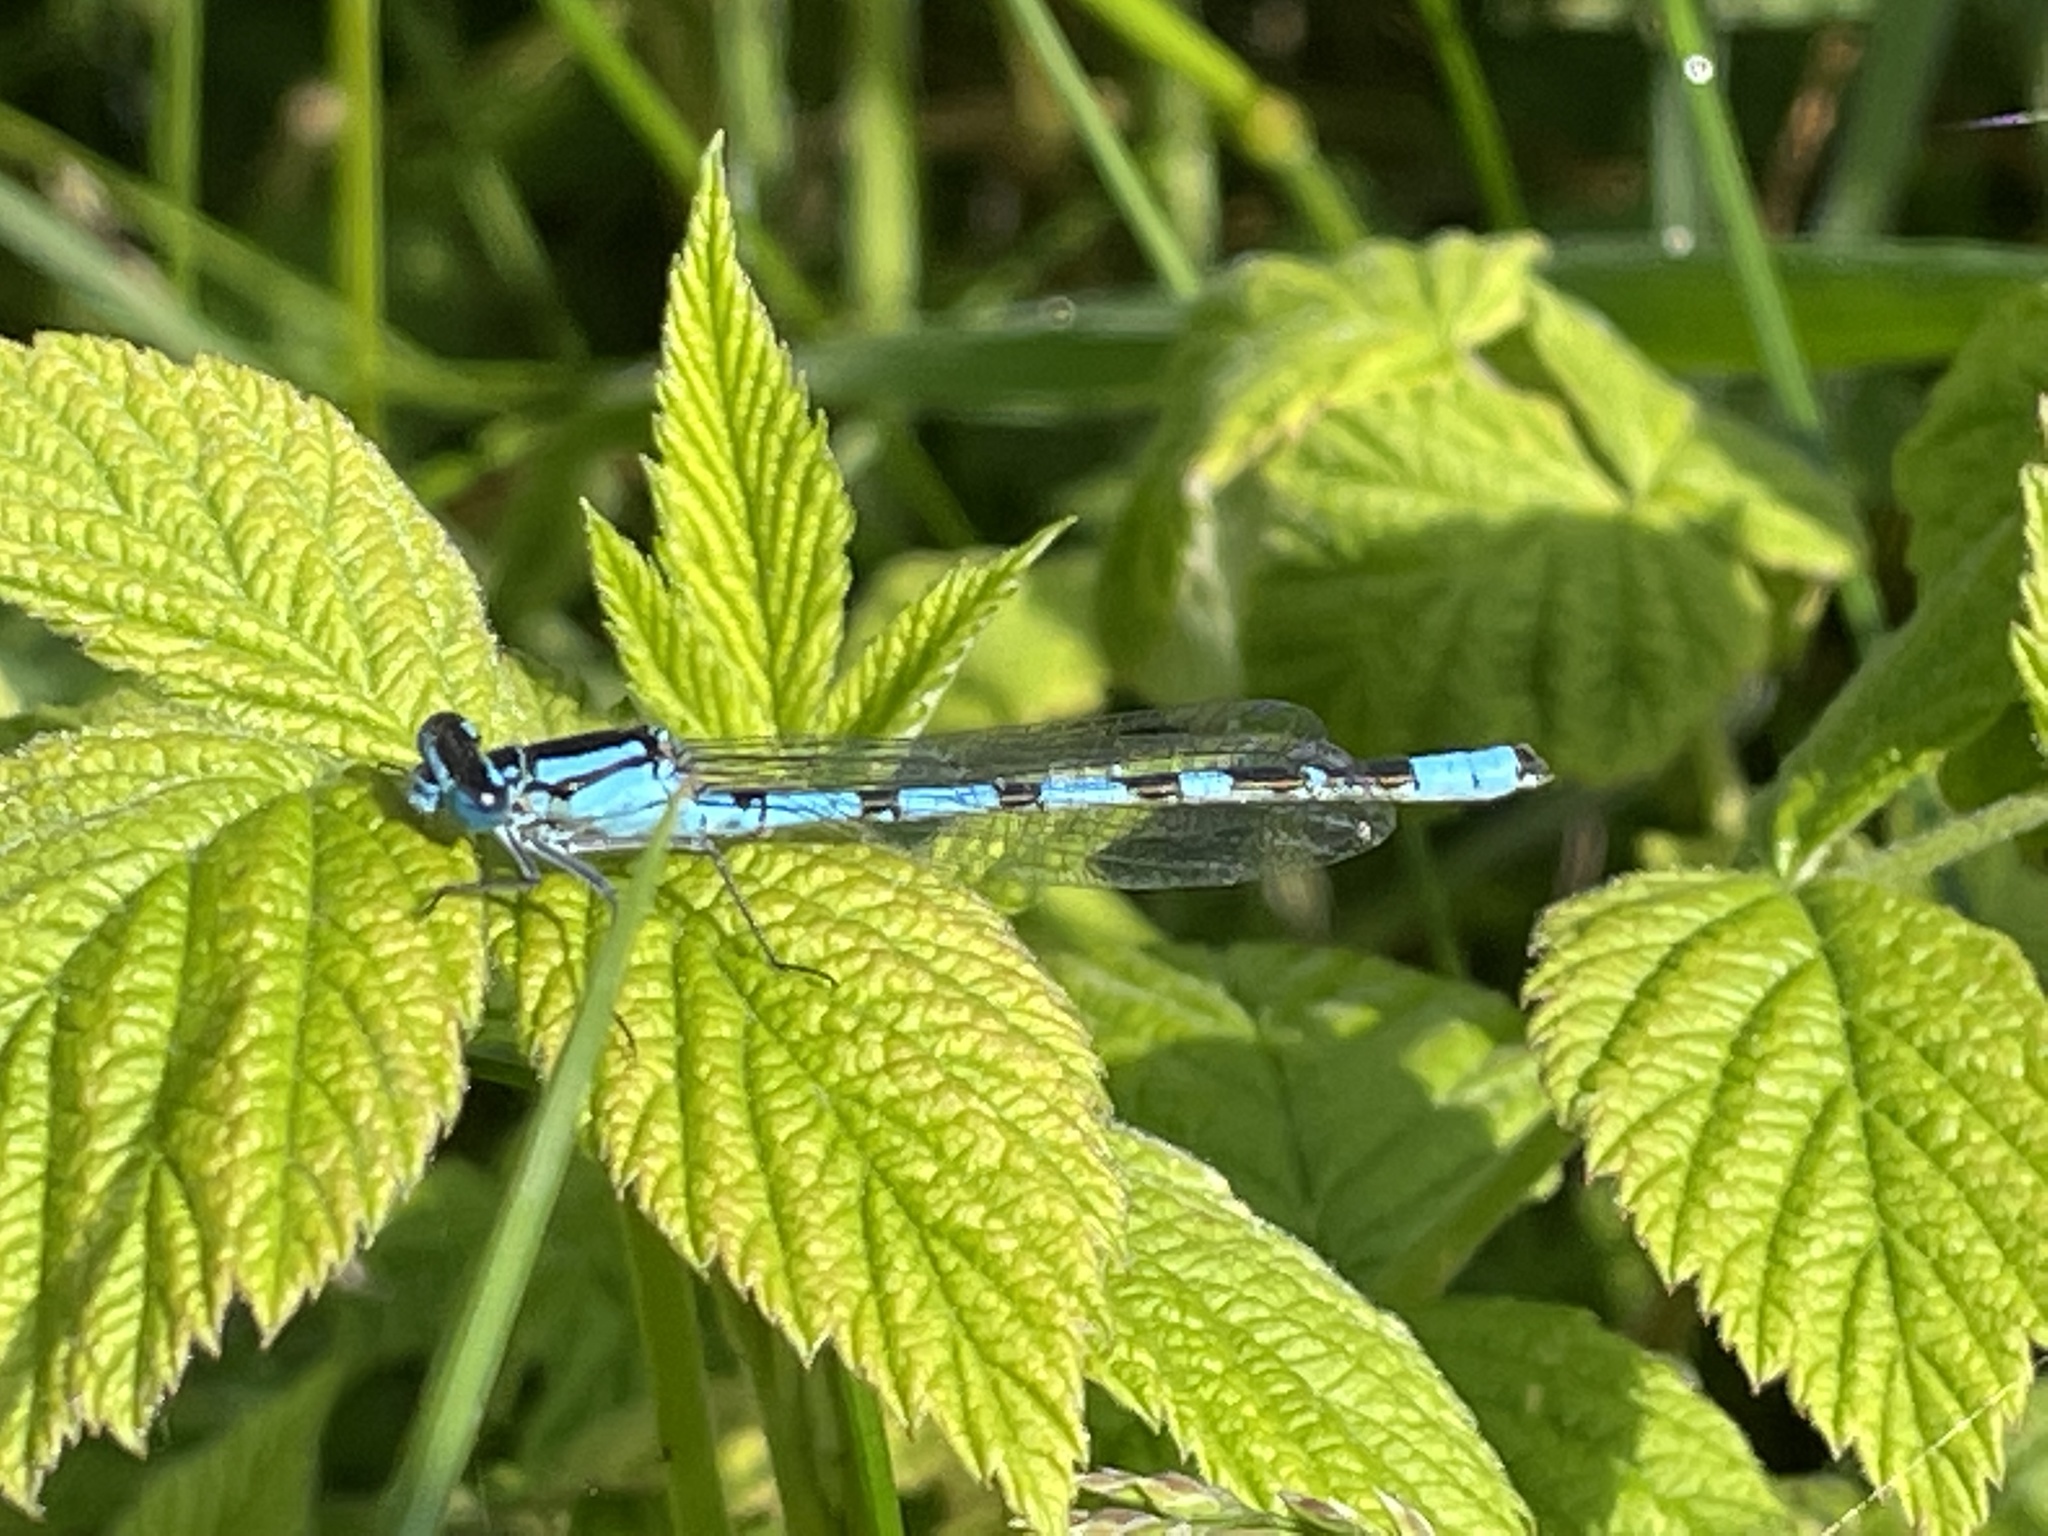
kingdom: Animalia
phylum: Arthropoda
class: Insecta
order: Odonata
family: Coenagrionidae
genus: Enallagma
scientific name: Enallagma cyathigerum
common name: Common blue damselfly
